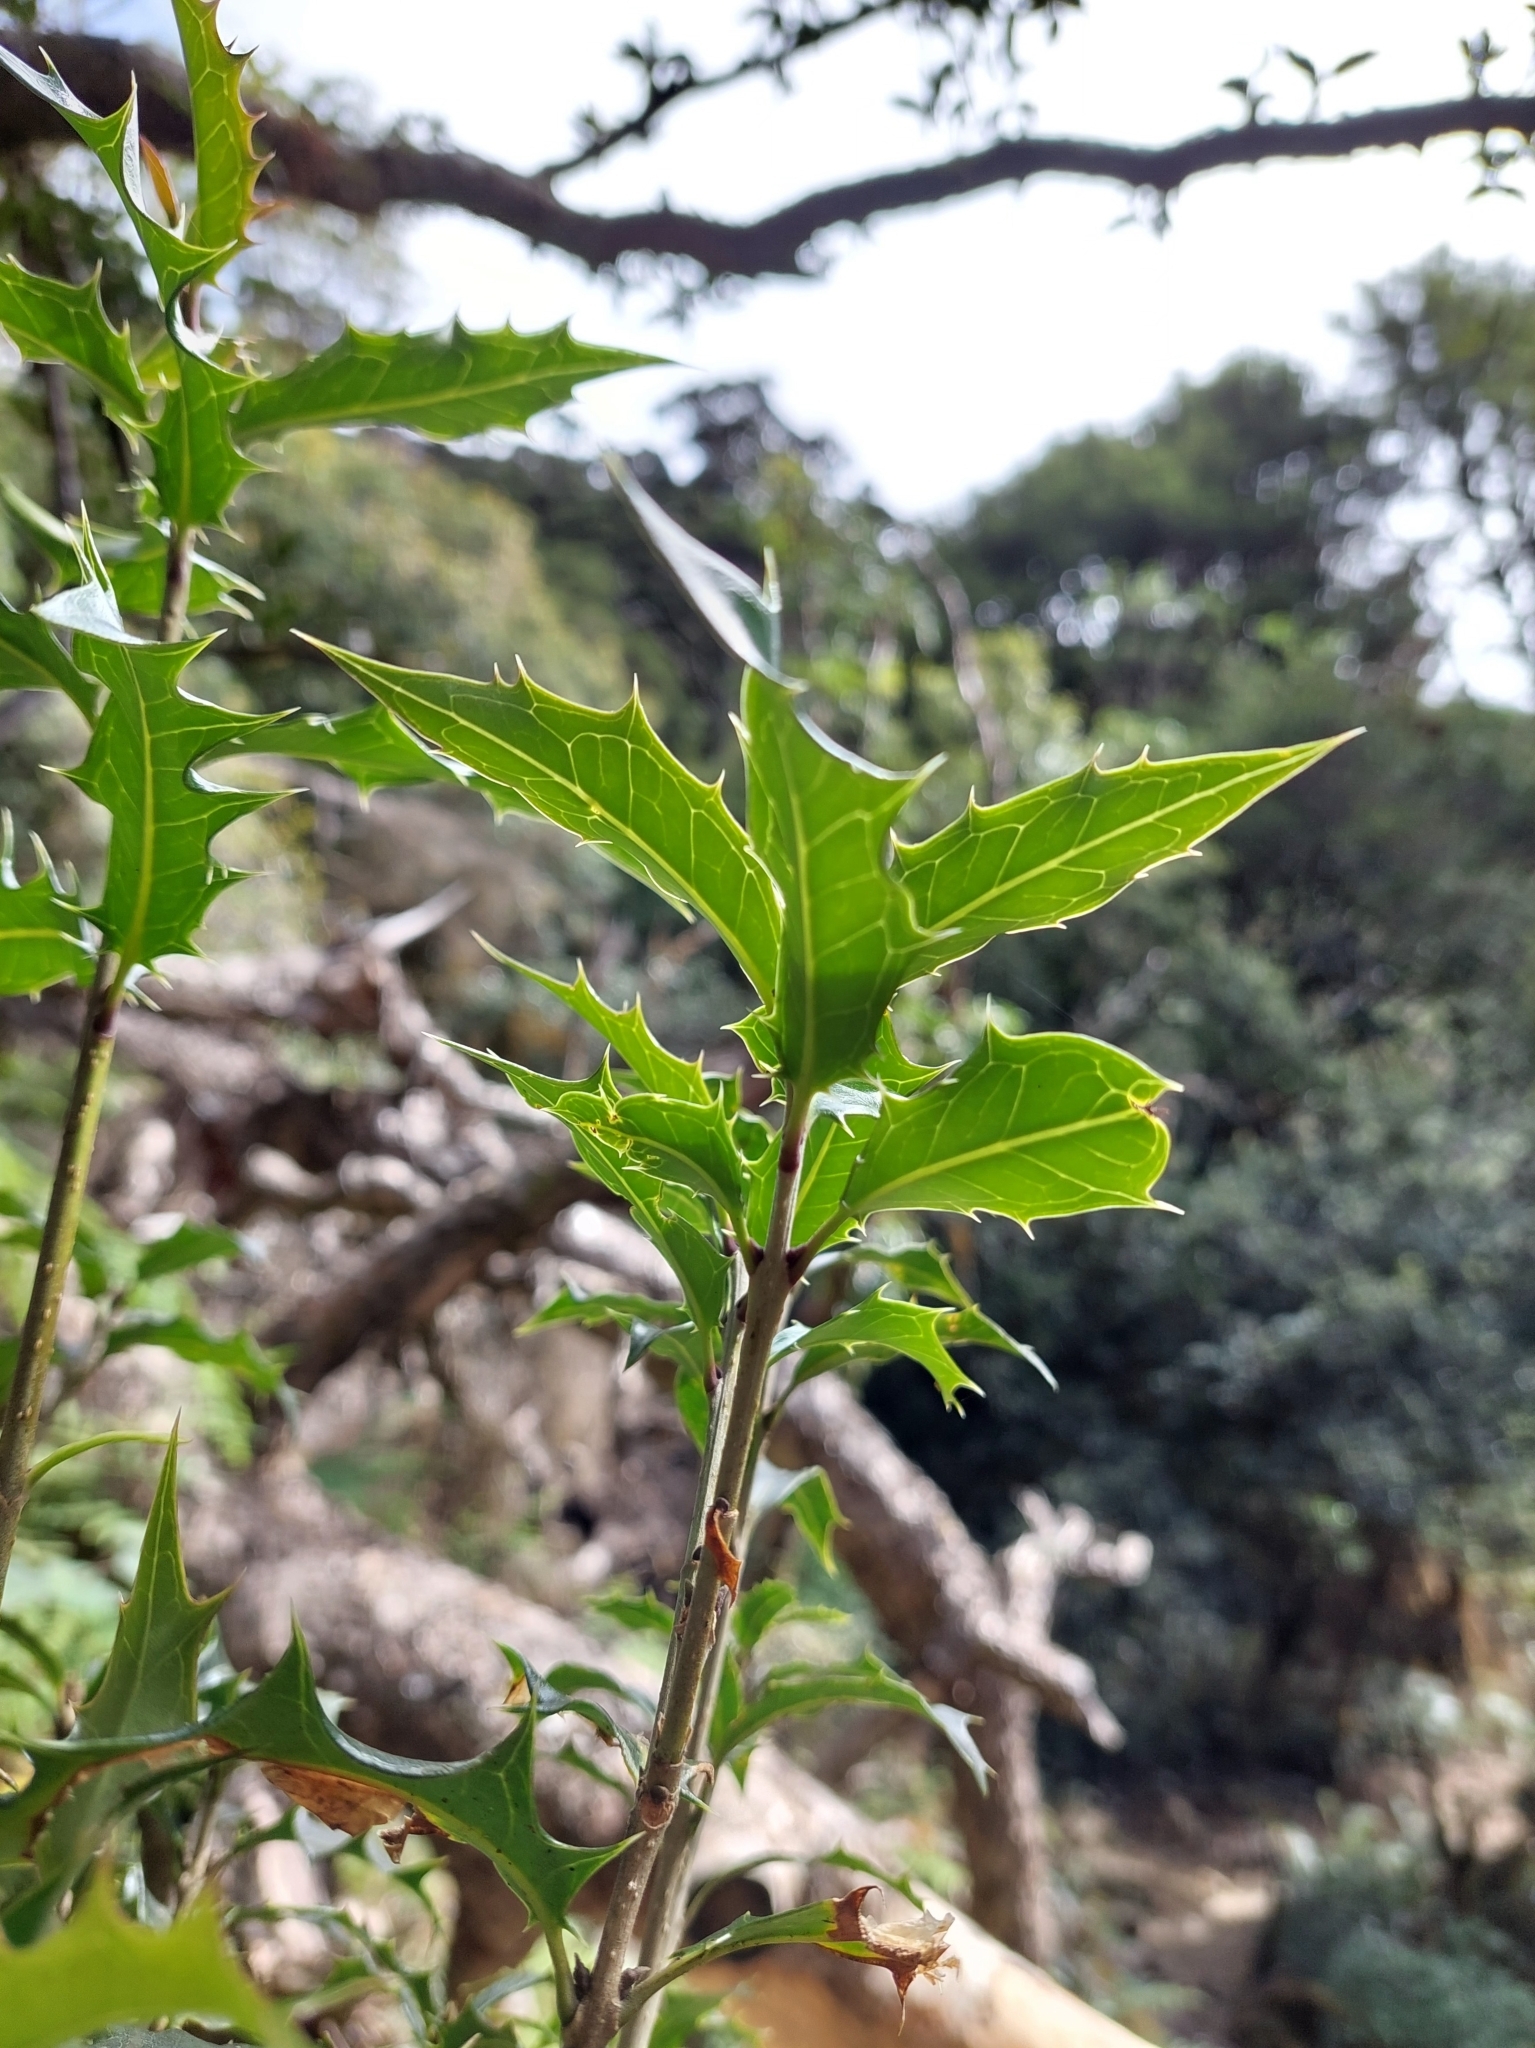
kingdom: Plantae
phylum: Tracheophyta
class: Magnoliopsida
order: Lamiales
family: Oleaceae
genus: Osmanthus
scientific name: Osmanthus heterophyllus
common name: Holly osmanthus
